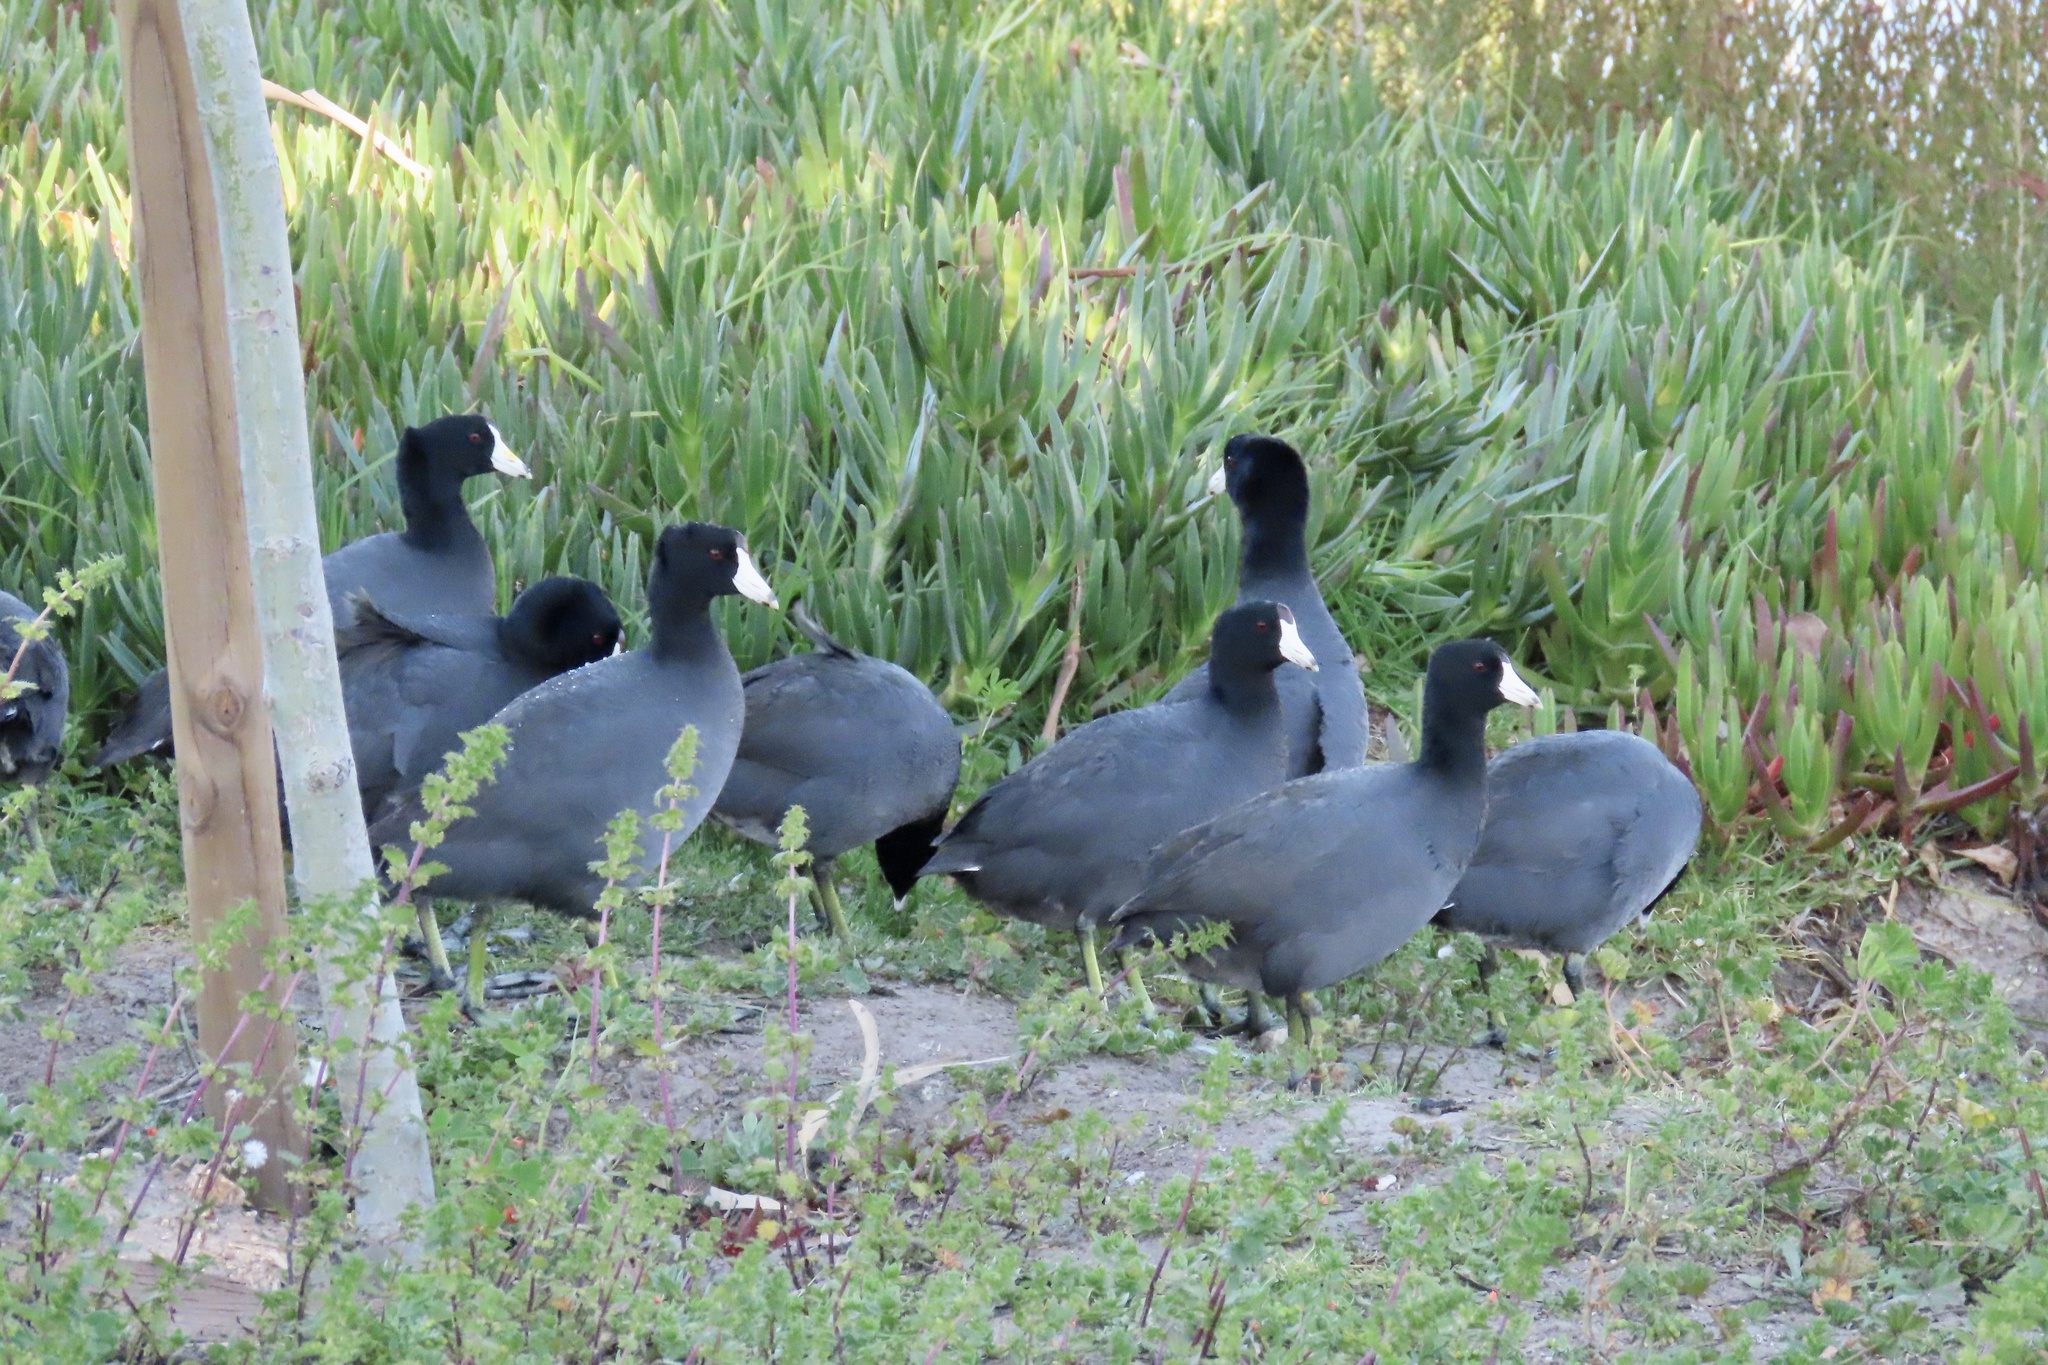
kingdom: Animalia
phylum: Chordata
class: Aves
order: Gruiformes
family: Rallidae
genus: Fulica
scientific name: Fulica americana
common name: American coot
